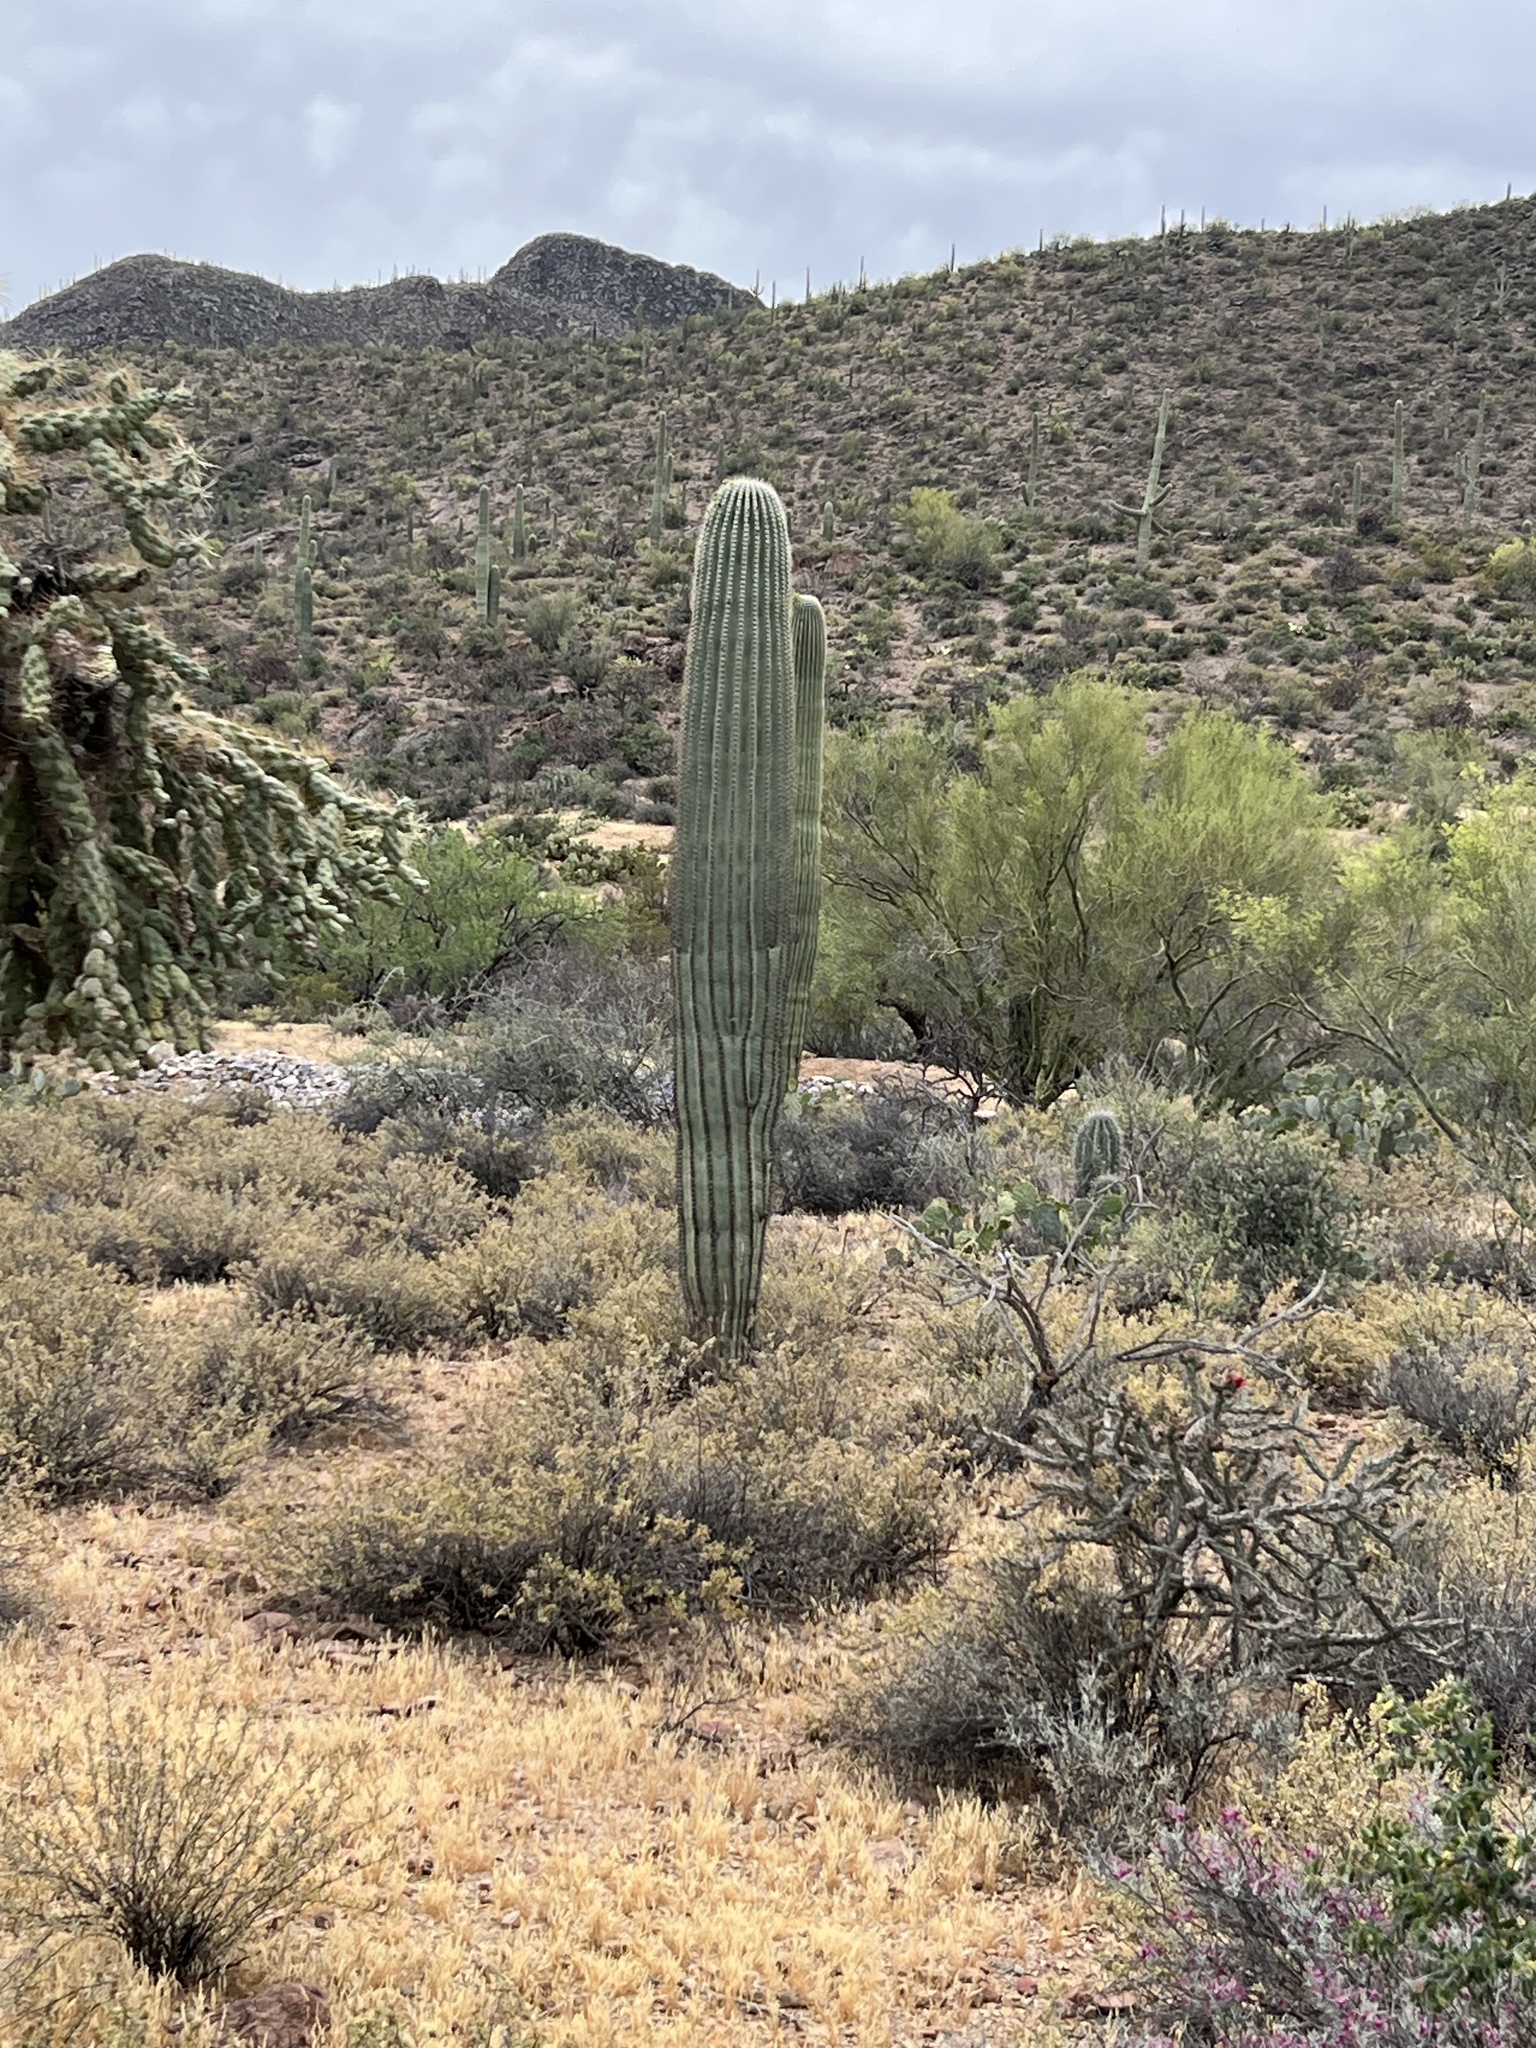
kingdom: Plantae
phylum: Tracheophyta
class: Magnoliopsida
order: Caryophyllales
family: Cactaceae
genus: Carnegiea
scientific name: Carnegiea gigantea
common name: Saguaro
